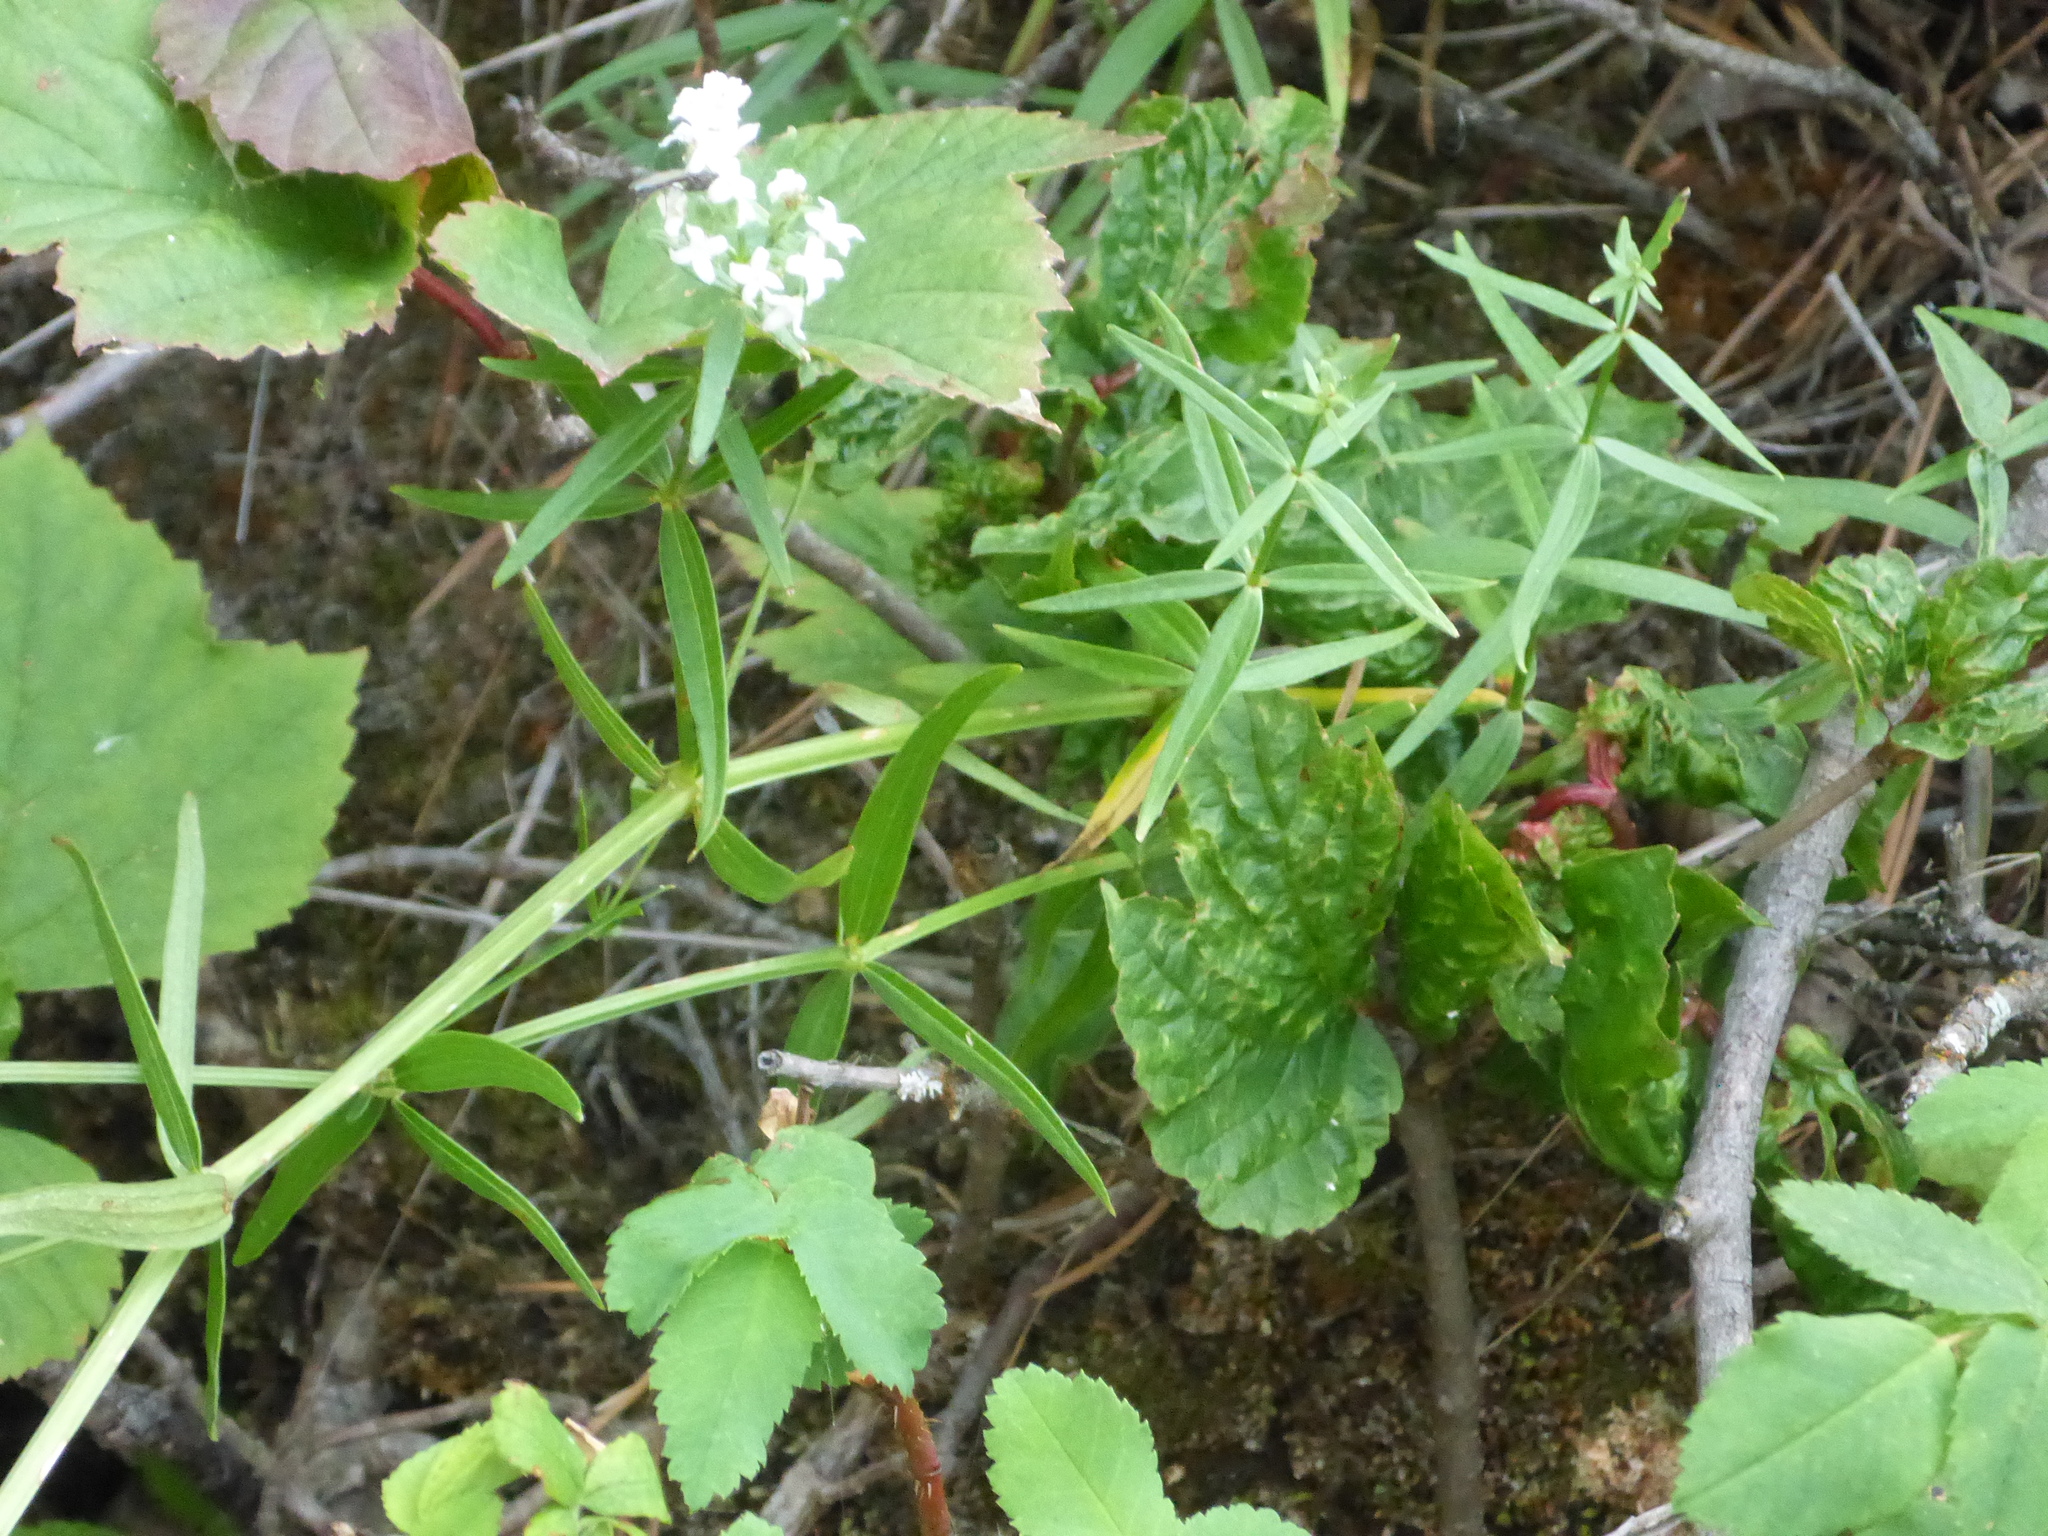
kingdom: Plantae
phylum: Tracheophyta
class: Magnoliopsida
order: Gentianales
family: Rubiaceae
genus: Galium
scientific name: Galium boreale
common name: Northern bedstraw
